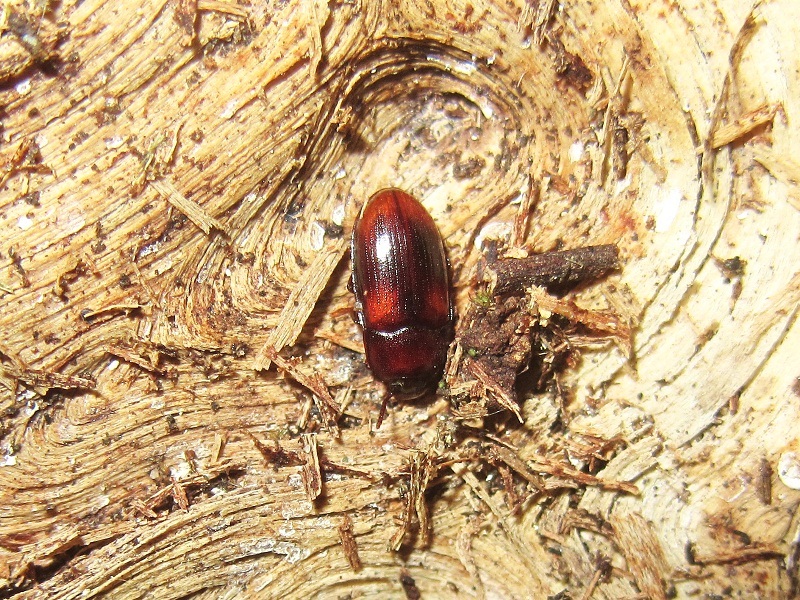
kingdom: Animalia
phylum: Arthropoda
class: Insecta
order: Coleoptera
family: Tenebrionidae
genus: Diaclina
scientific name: Diaclina testudinea
